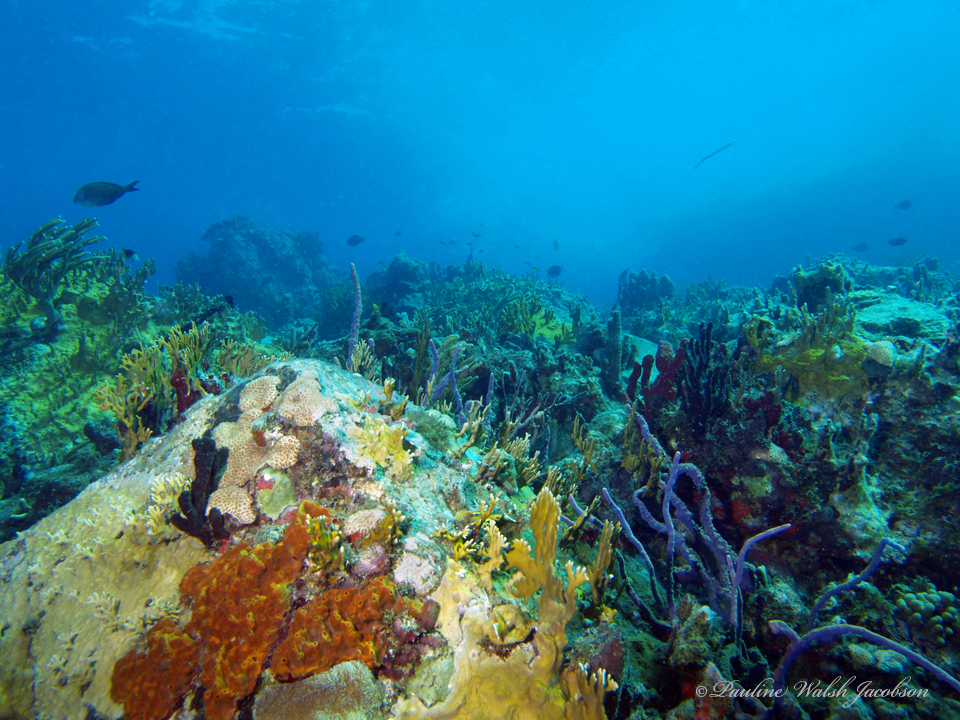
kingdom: Animalia
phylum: Porifera
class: Demospongiae
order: Verongiida
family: Aplysinidae
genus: Aplysina
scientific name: Aplysina cauliformis
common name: Branching candle sponge
